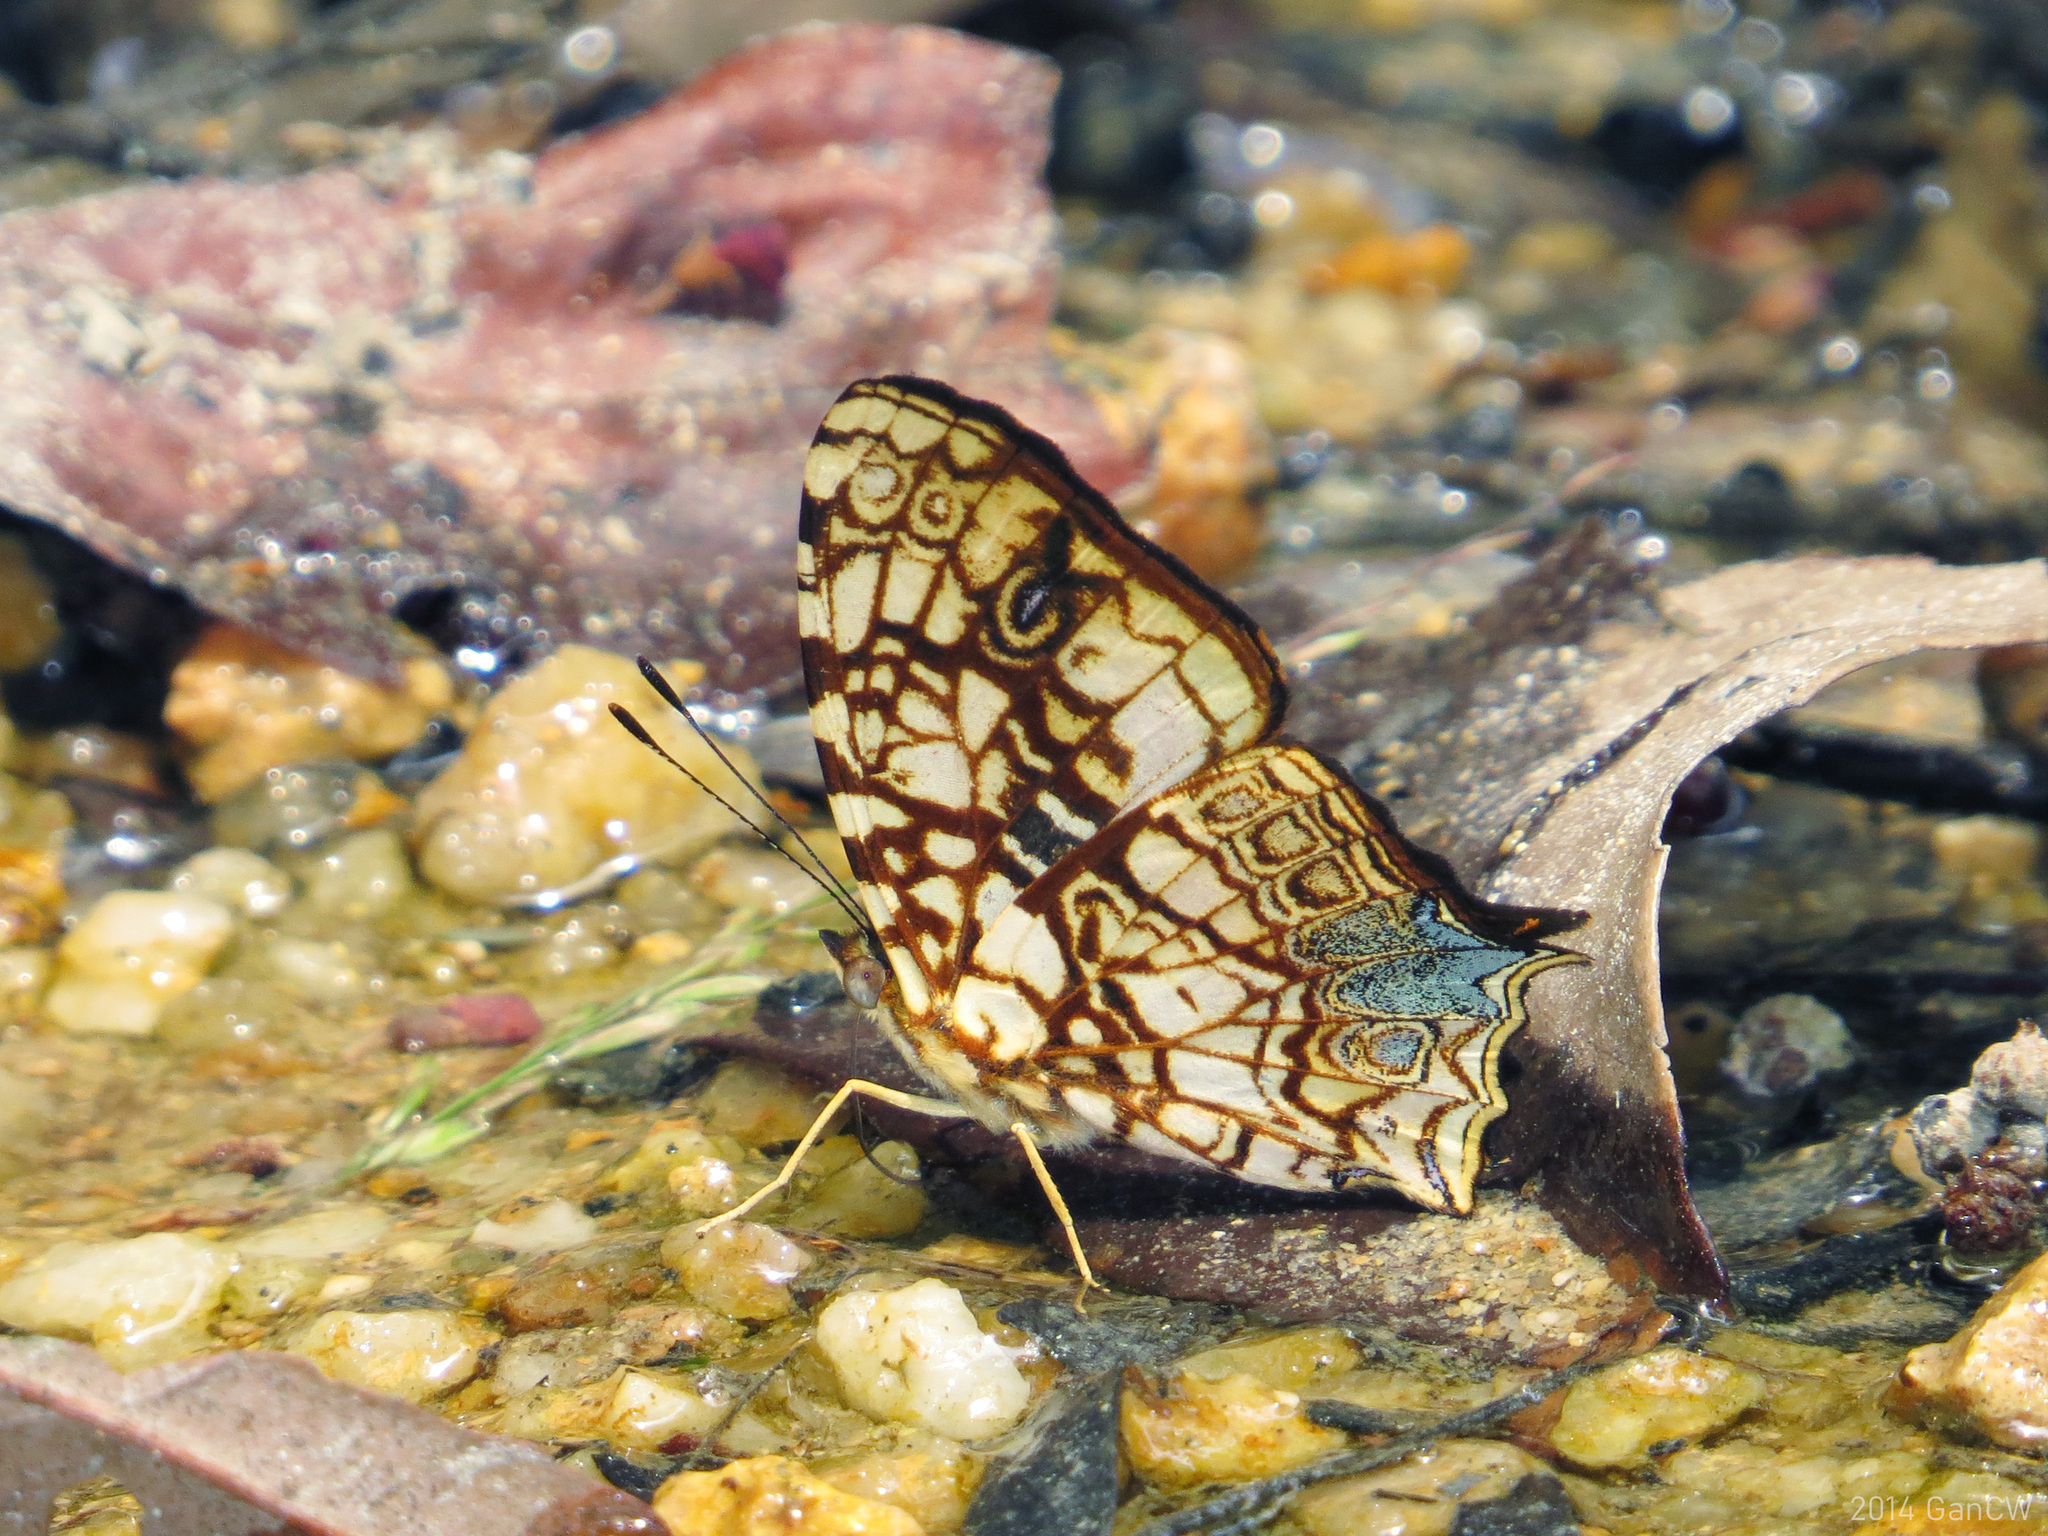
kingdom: Animalia
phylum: Arthropoda
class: Insecta
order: Lepidoptera
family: Nymphalidae
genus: Symbrenthia
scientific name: Symbrenthia hypatia
